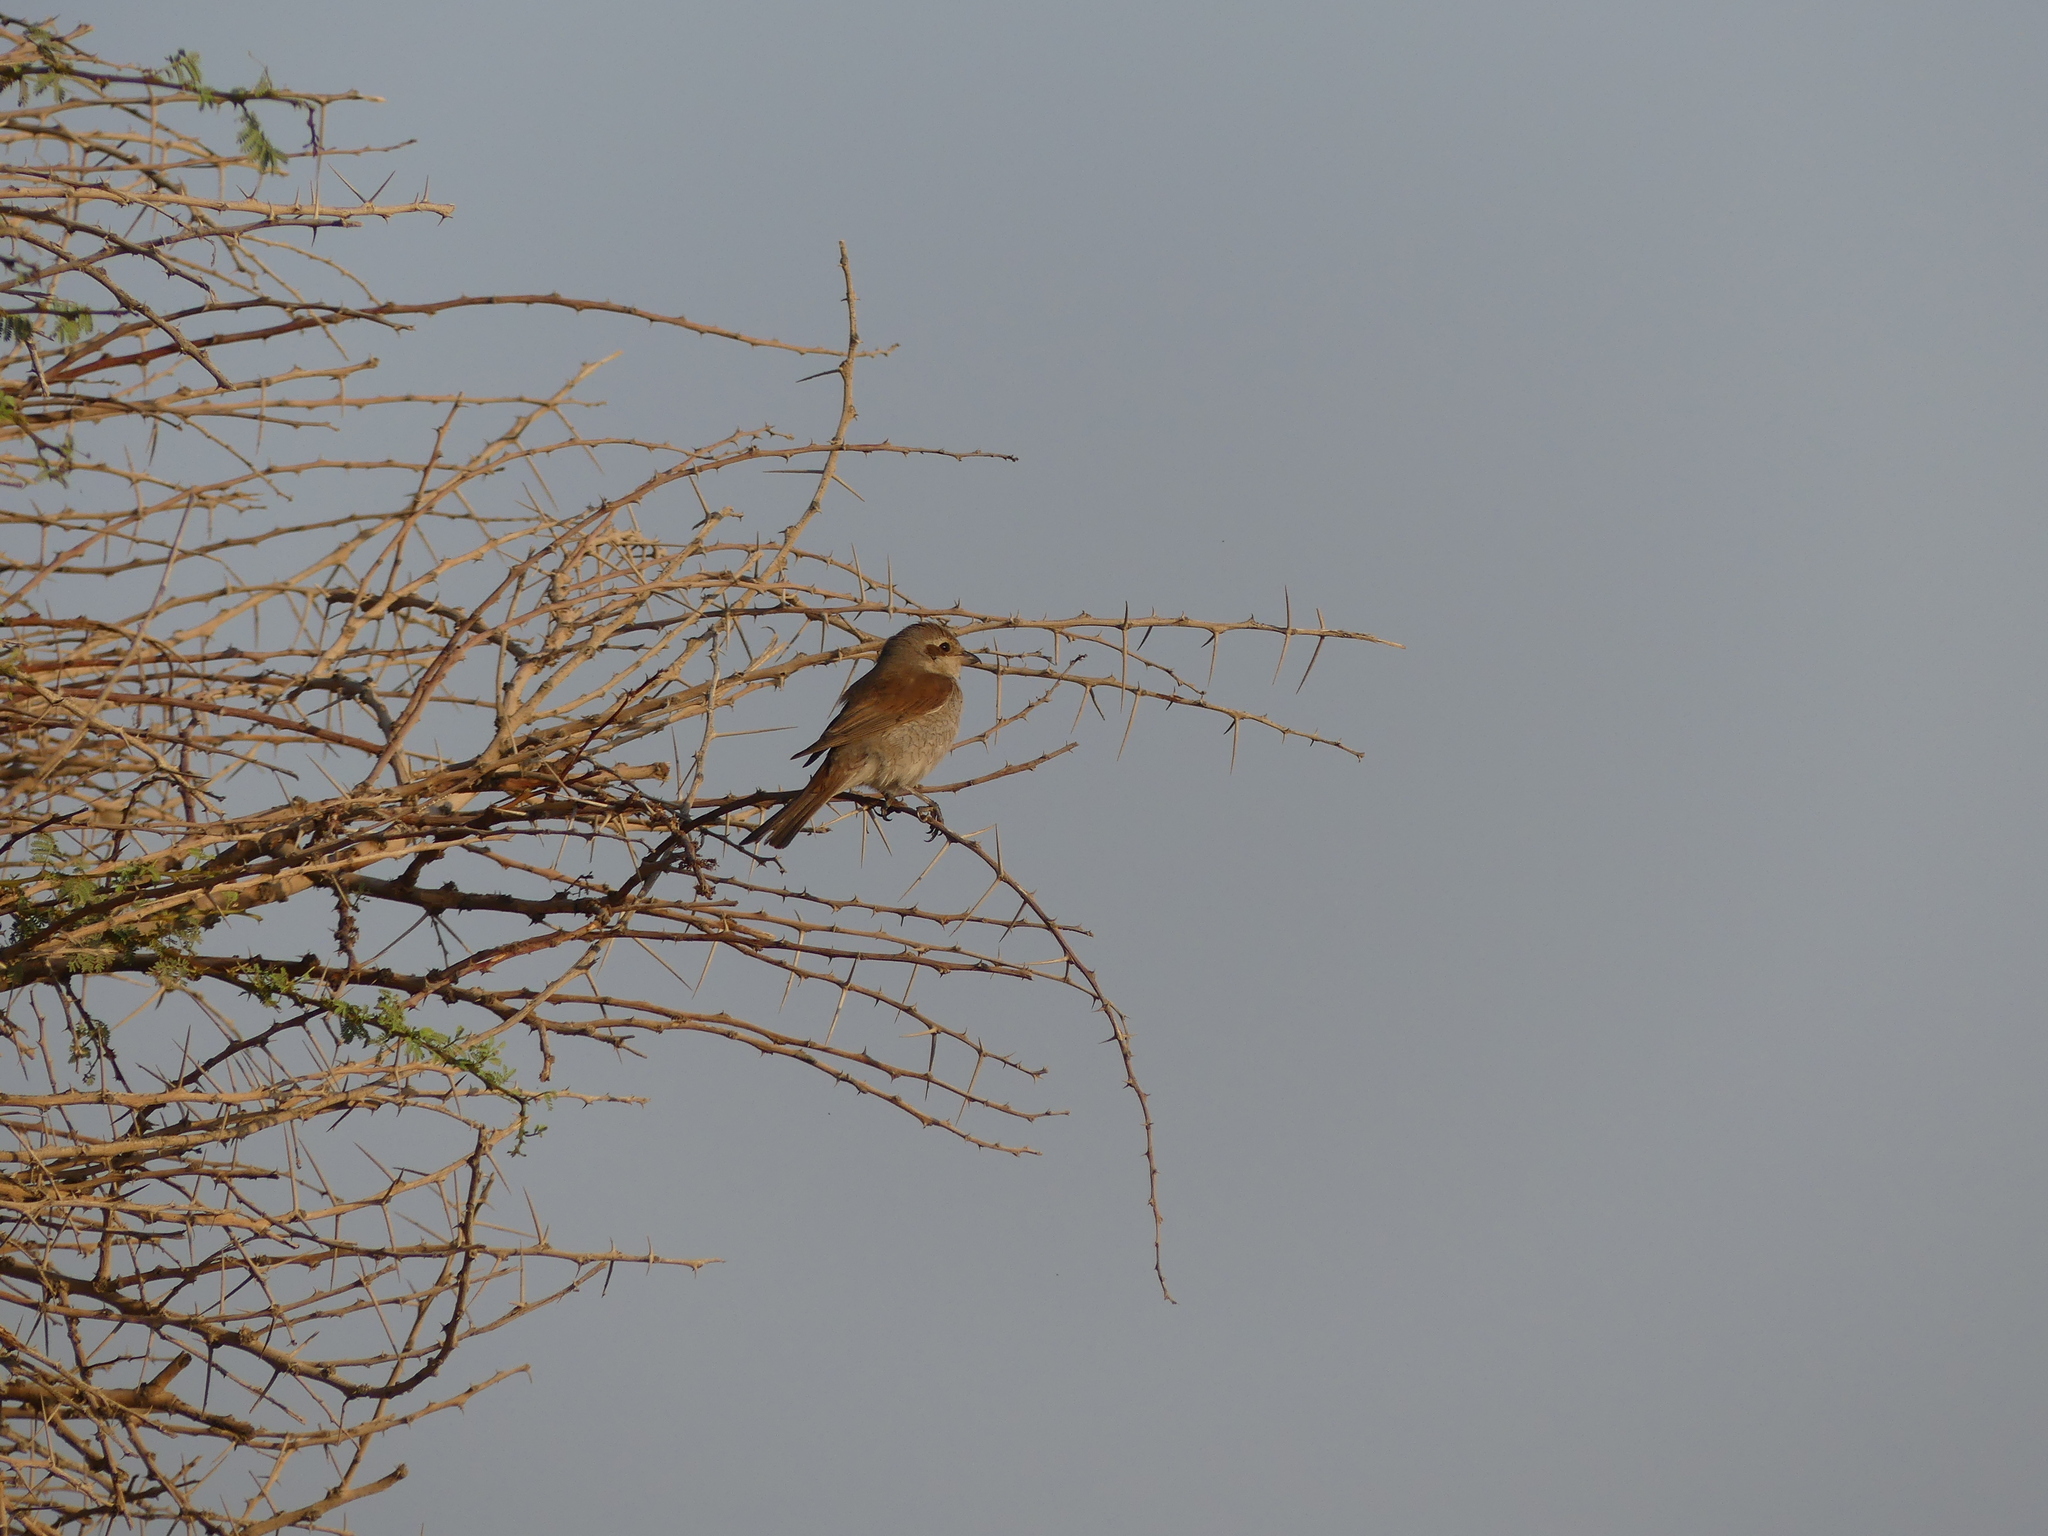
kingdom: Animalia
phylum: Chordata
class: Aves
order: Passeriformes
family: Laniidae
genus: Lanius
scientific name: Lanius collurio
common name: Red-backed shrike
